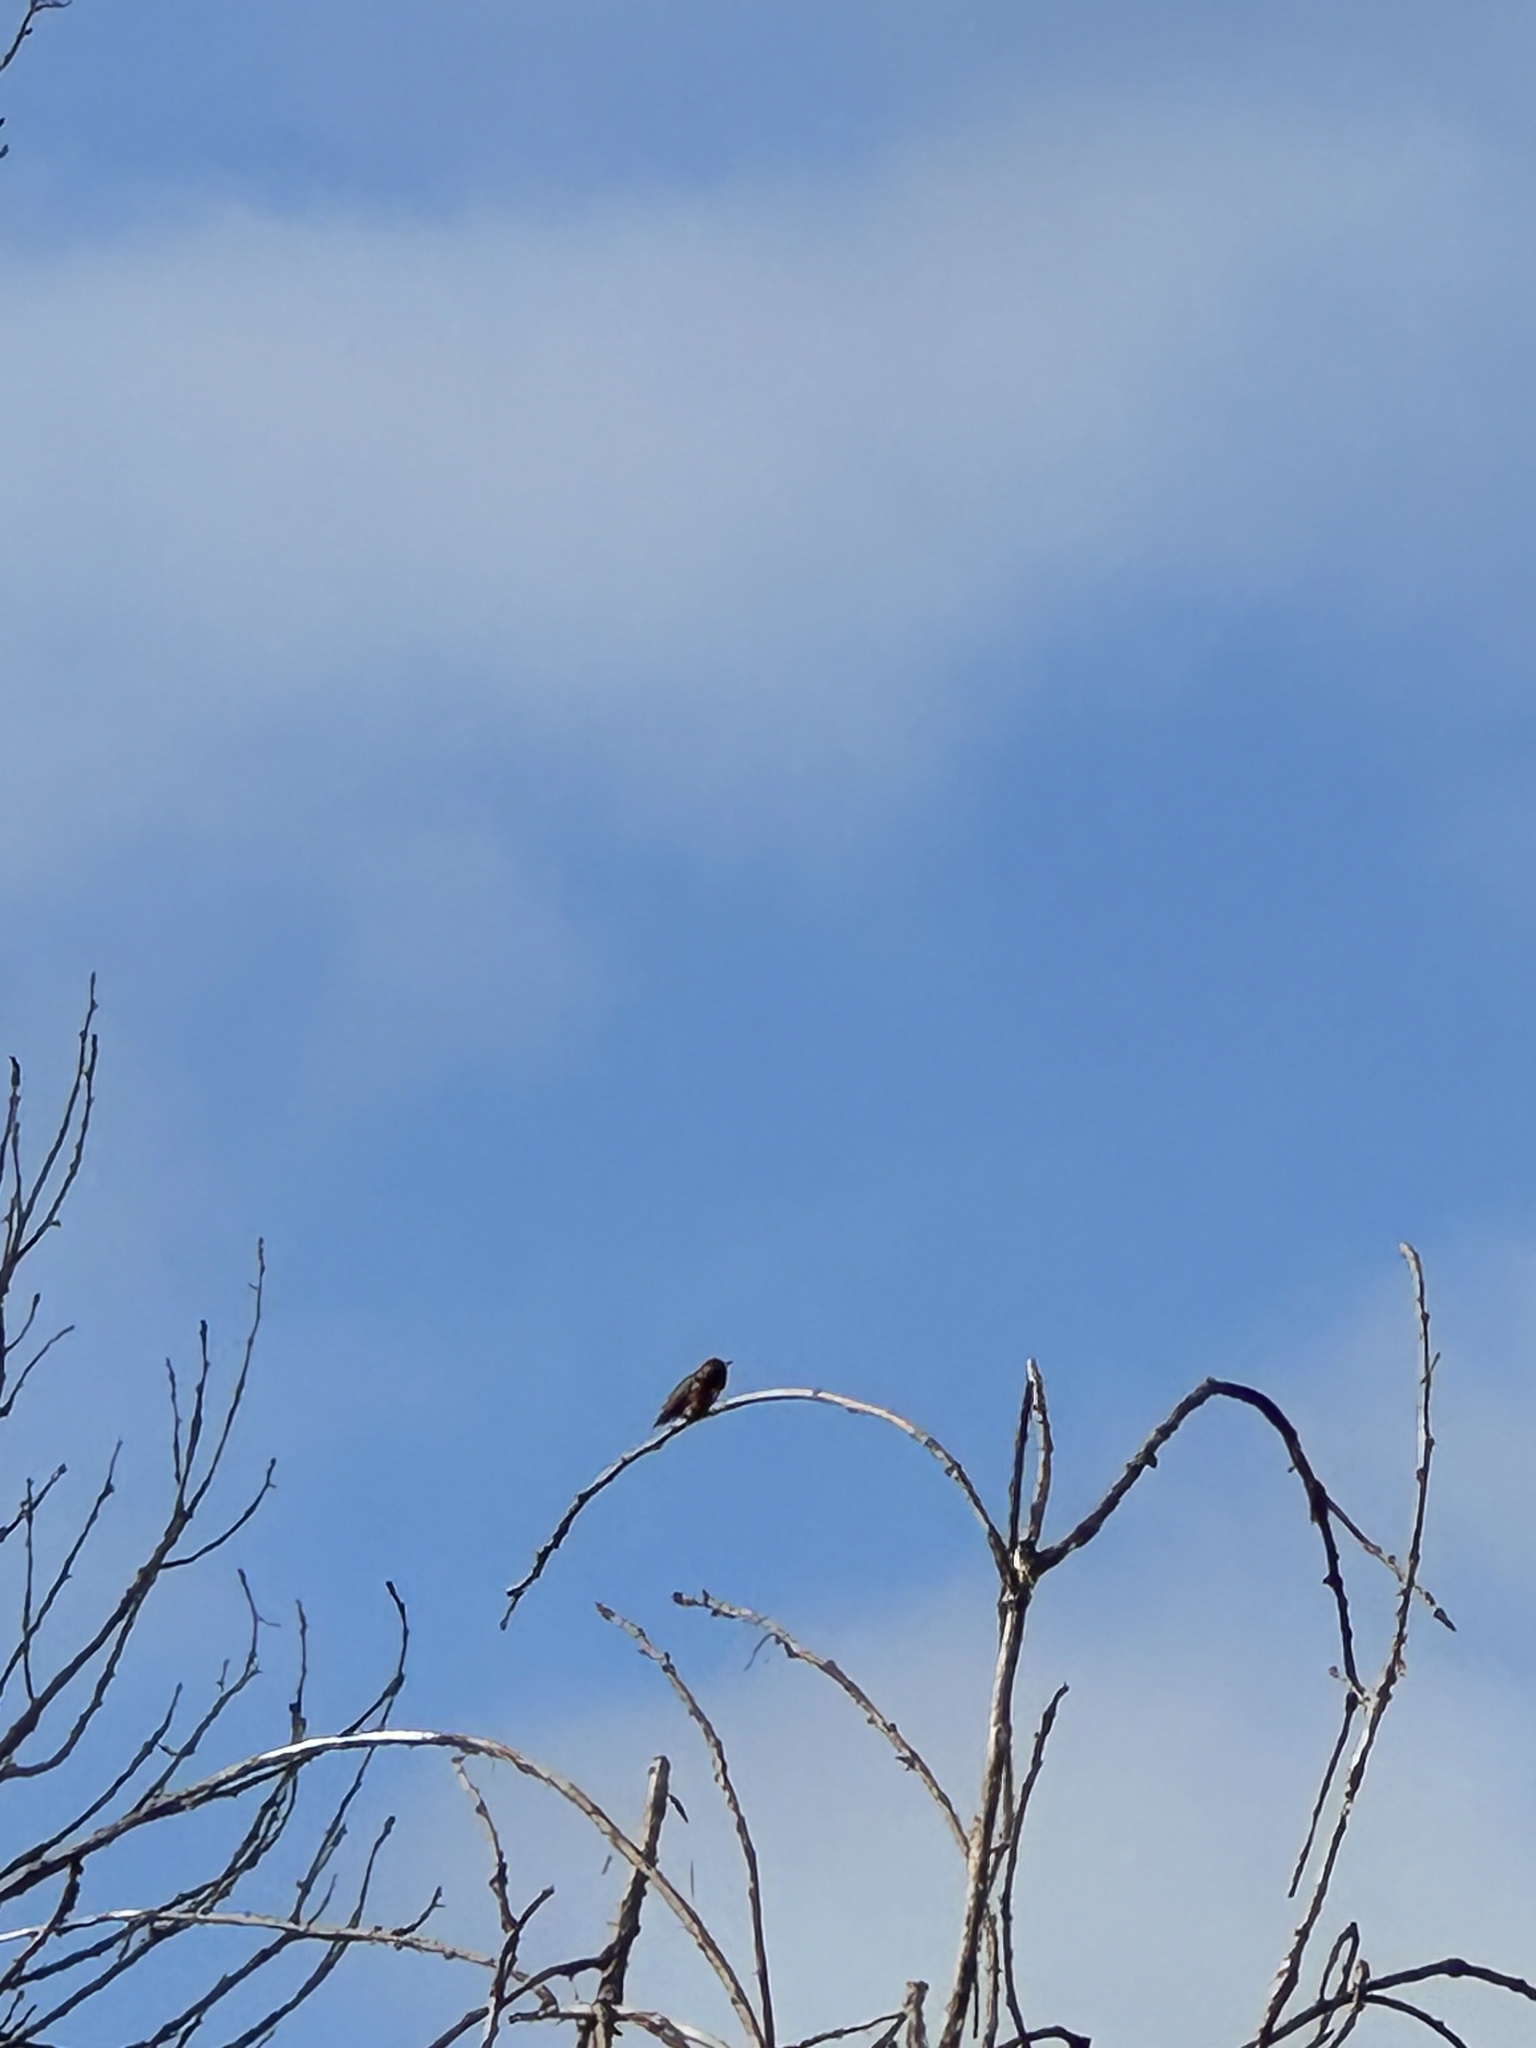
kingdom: Animalia
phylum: Chordata
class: Aves
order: Apodiformes
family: Trochilidae
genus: Selasphorus
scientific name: Selasphorus sasin
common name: Allen's hummingbird
